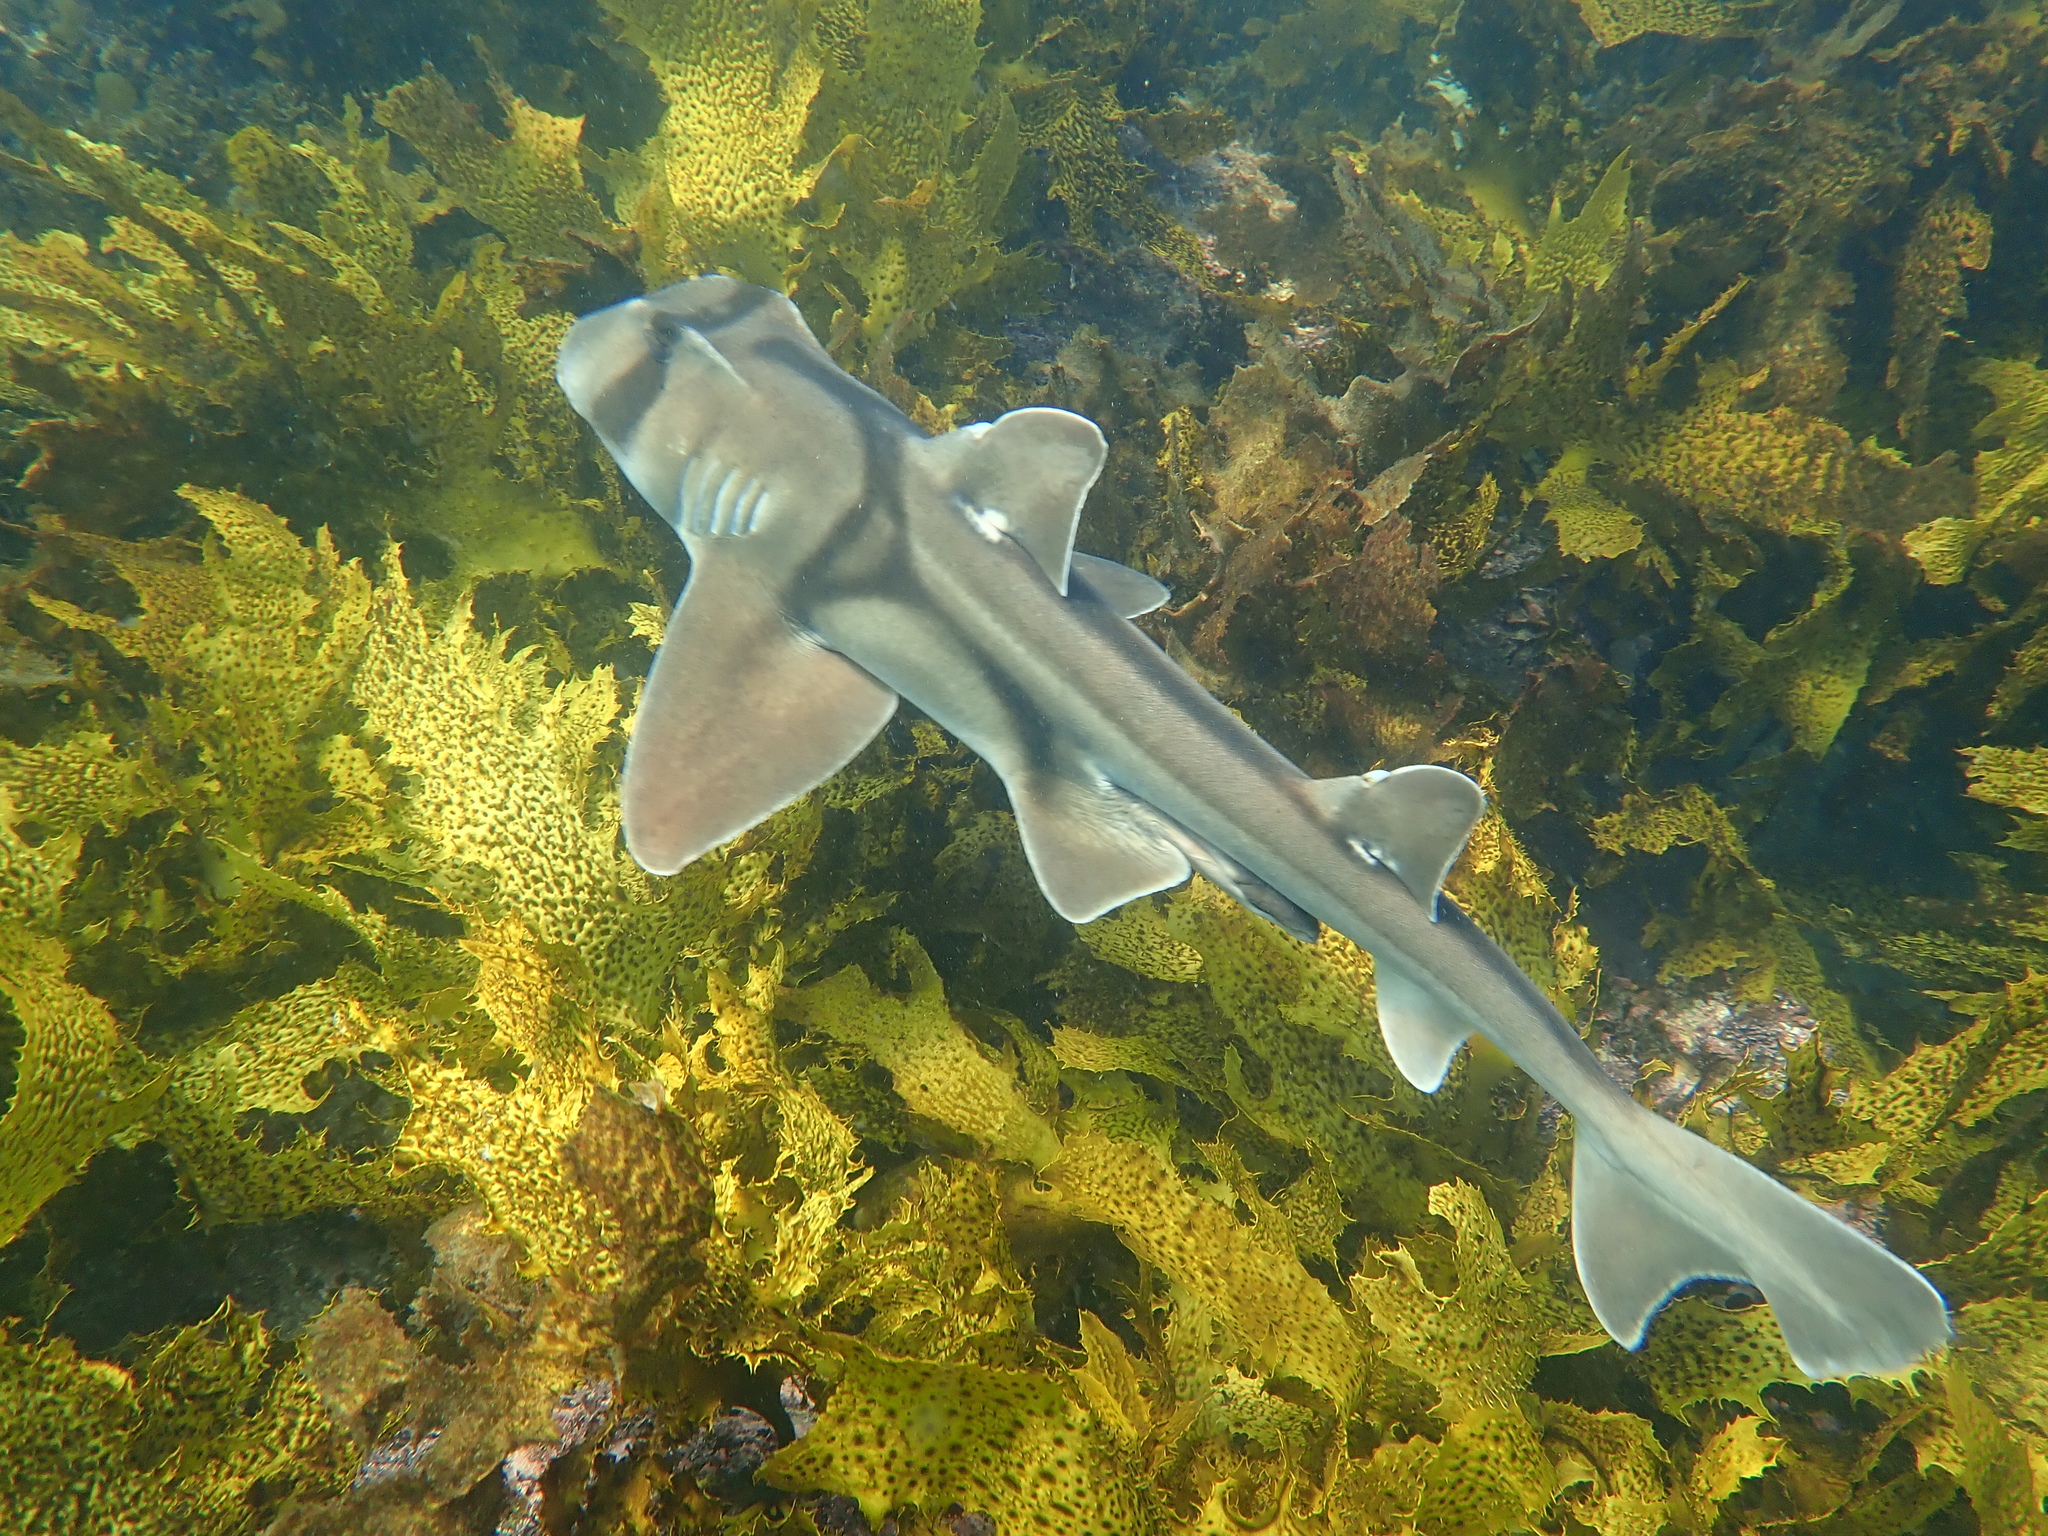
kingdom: Animalia
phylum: Chordata
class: Elasmobranchii
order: Heterodontiformes
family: Heterodontidae
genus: Heterodontus
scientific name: Heterodontus portusjacksoni
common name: Port jackson shark
